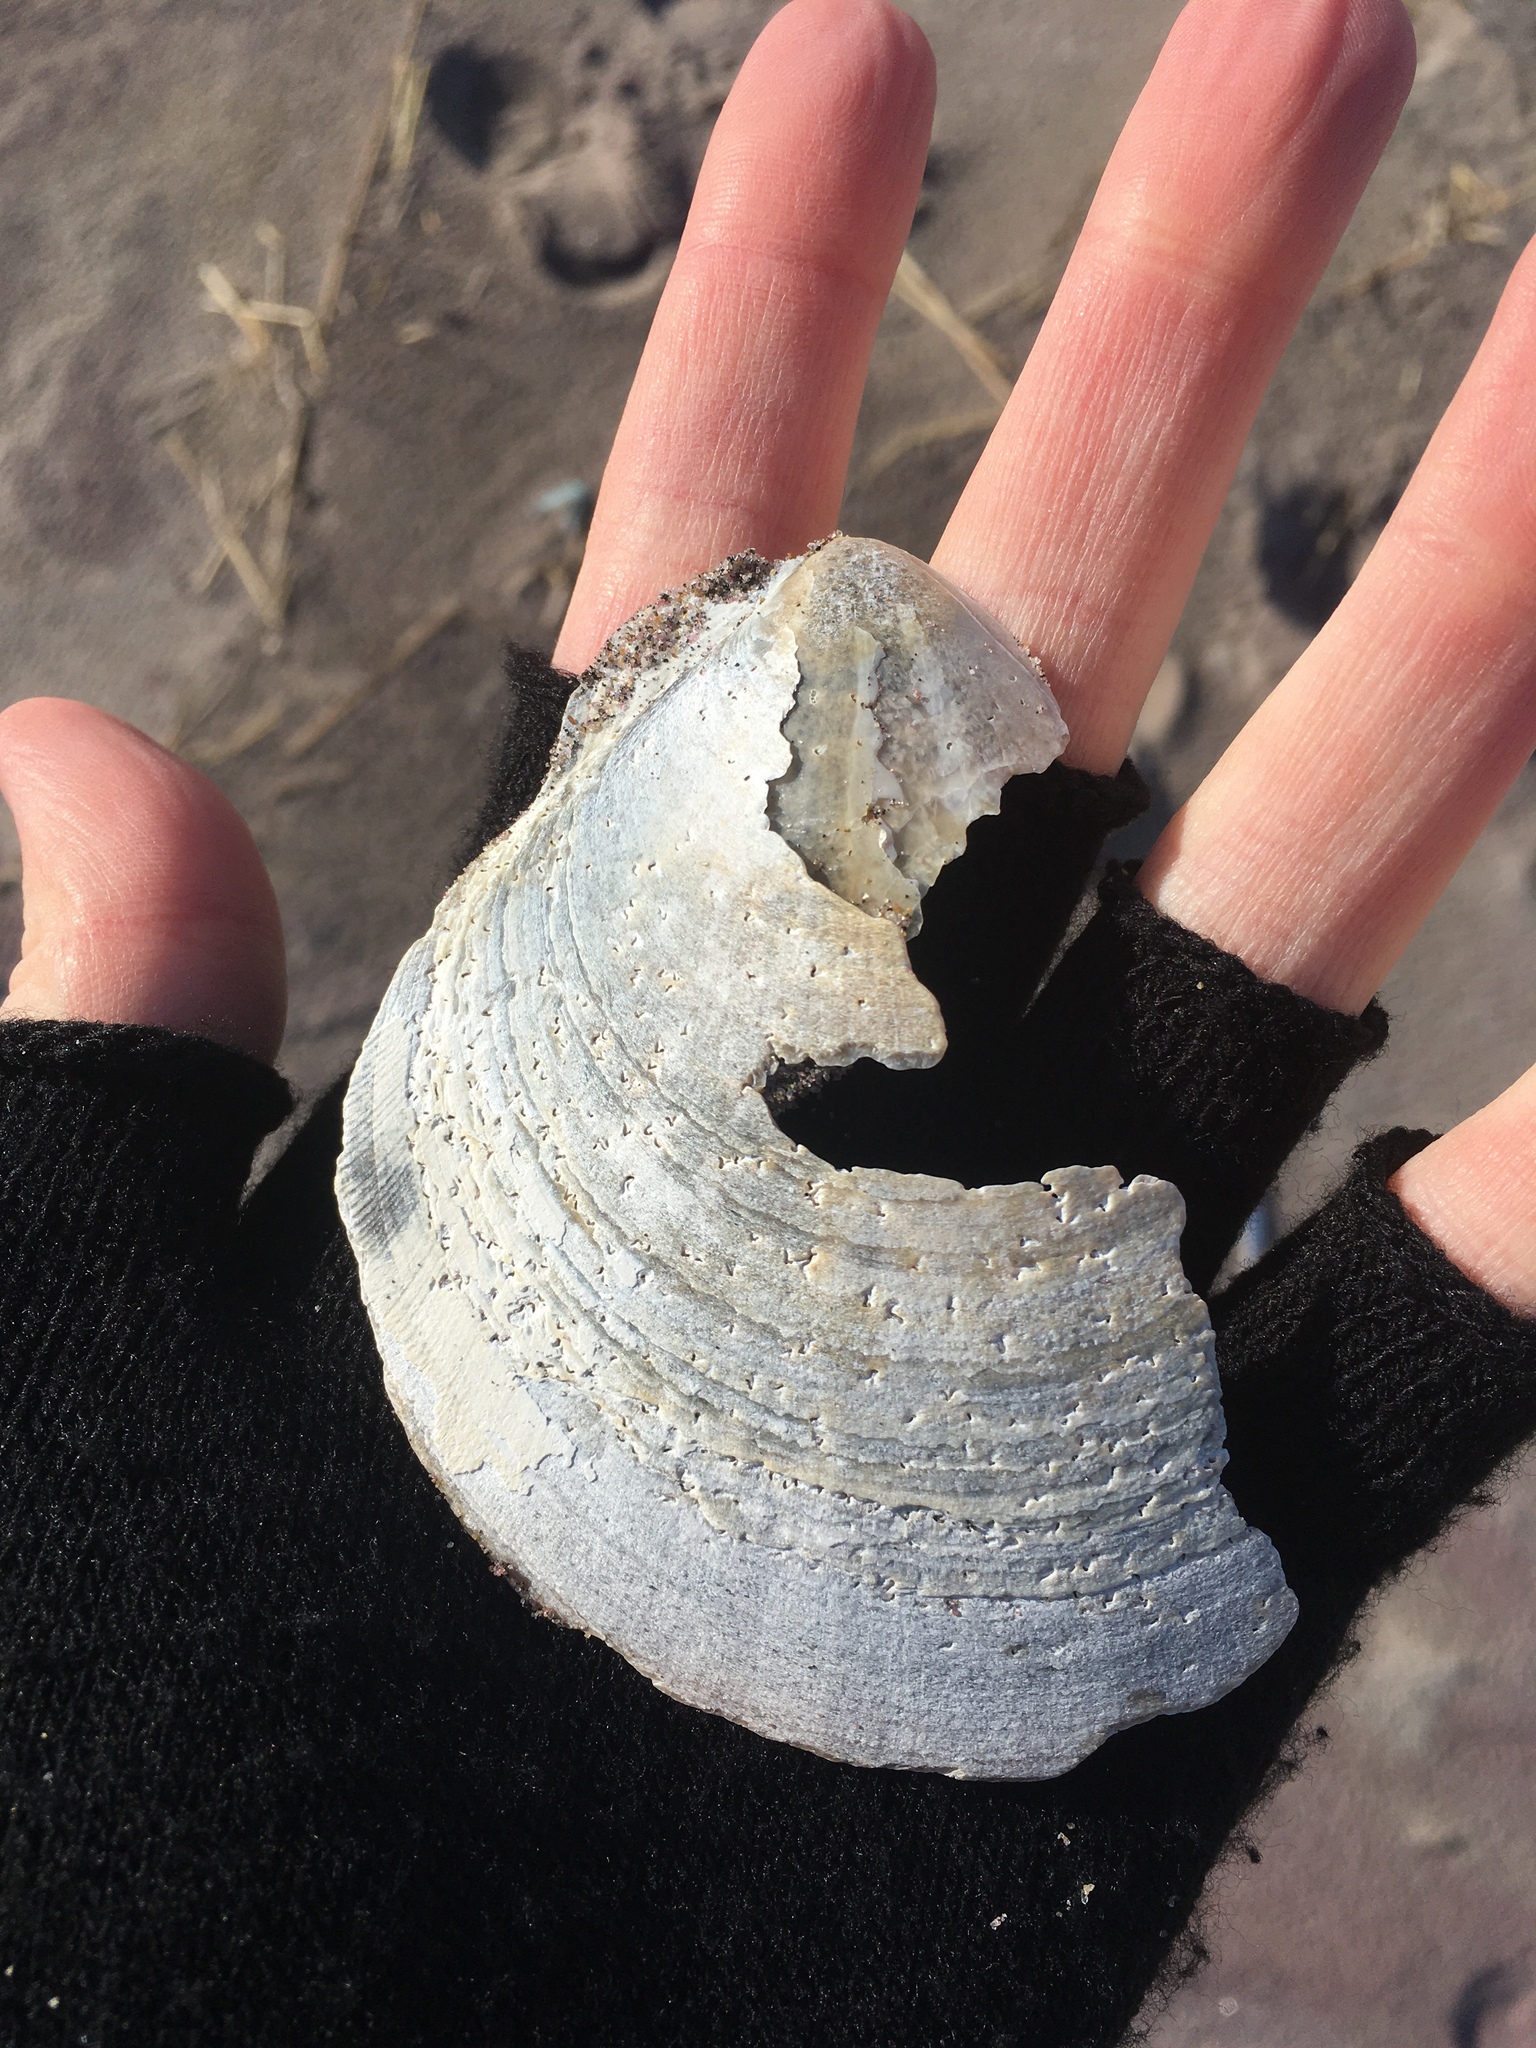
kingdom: Animalia
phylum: Mollusca
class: Bivalvia
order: Pectinida
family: Pectinidae
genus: Placopecten
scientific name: Placopecten magellanicus
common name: American sea scallop
